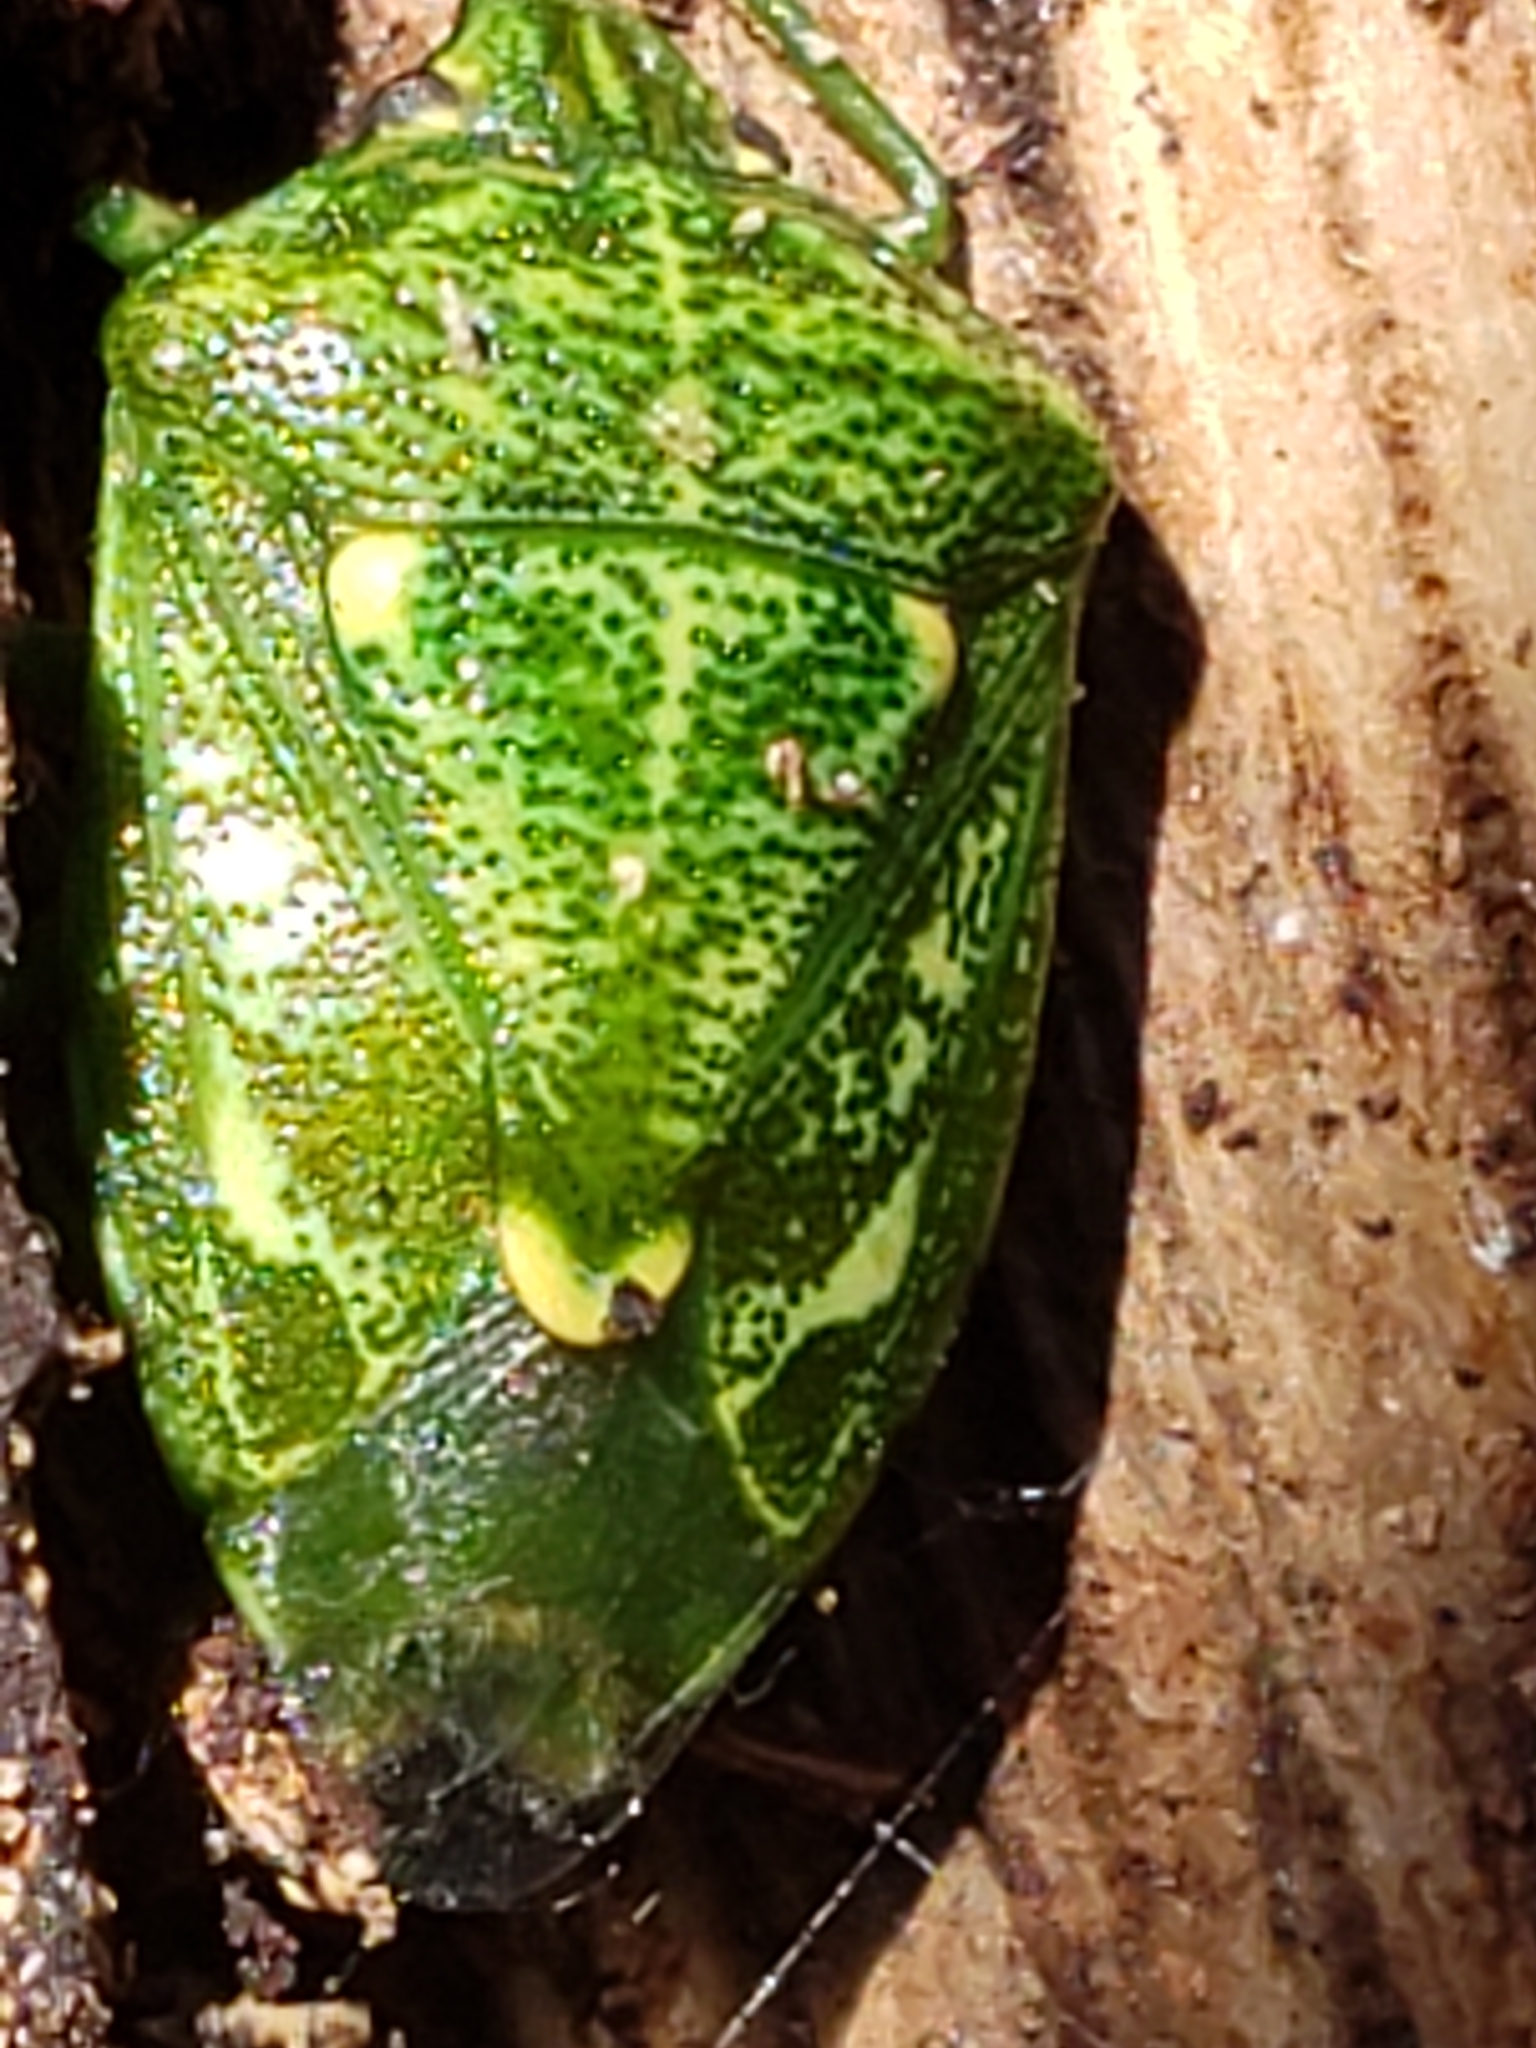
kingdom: Animalia
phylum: Arthropoda
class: Insecta
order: Hemiptera
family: Pentatomidae
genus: Banasa
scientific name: Banasa euchlora
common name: Cedar berry bug
